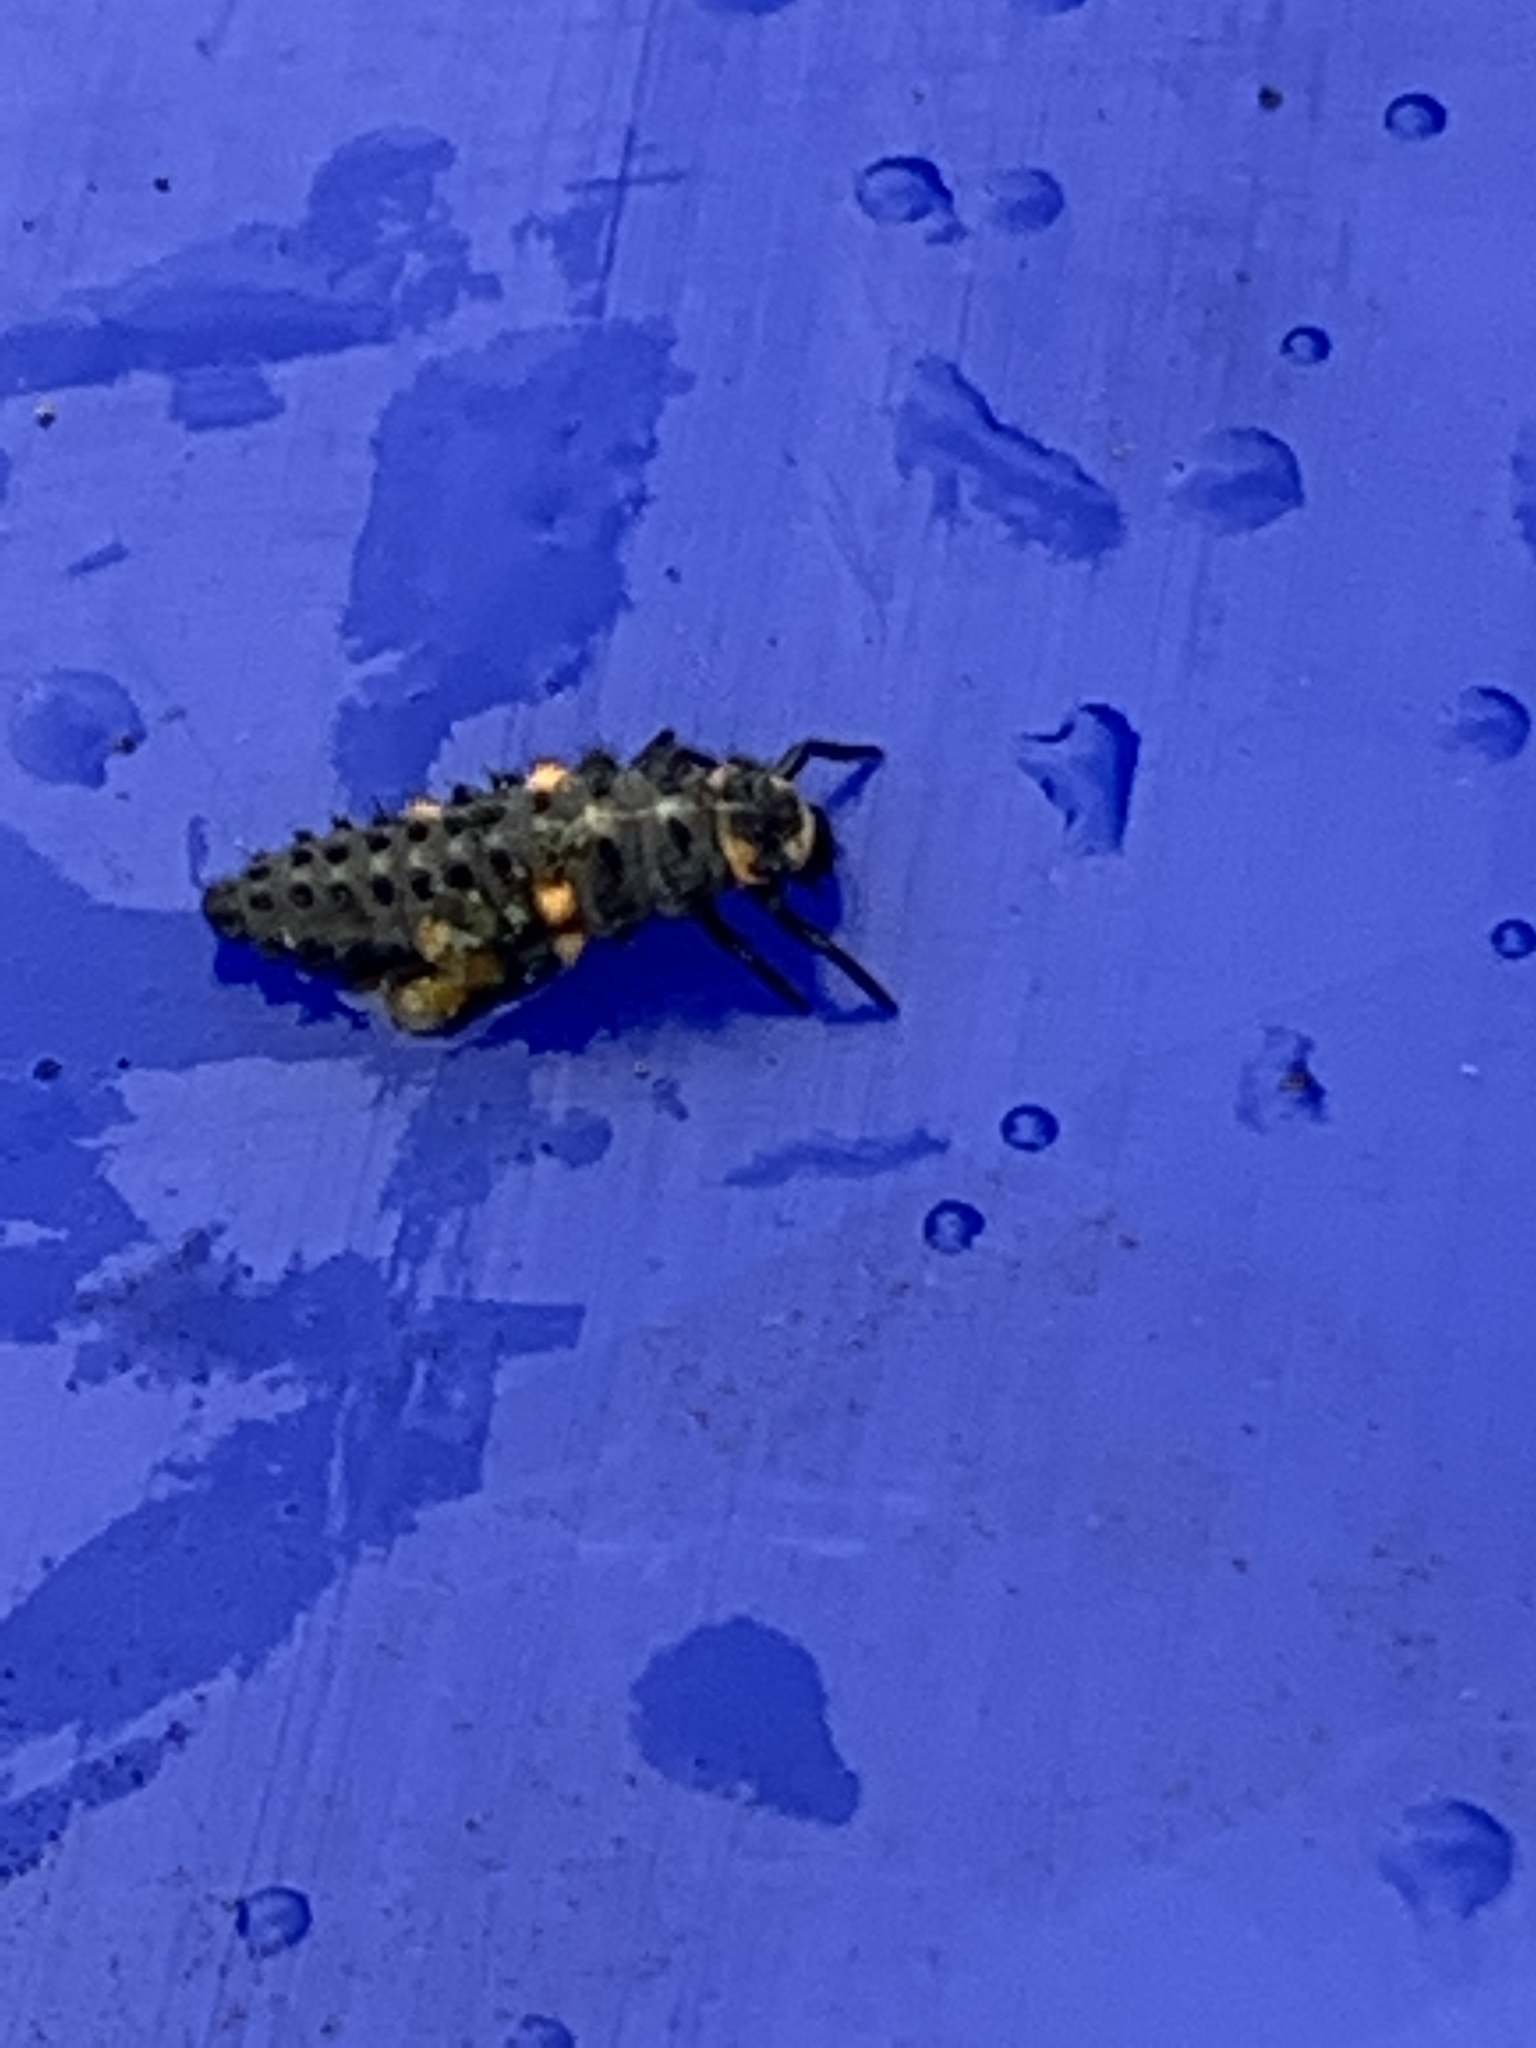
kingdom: Animalia
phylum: Arthropoda
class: Insecta
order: Coleoptera
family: Coccinellidae
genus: Coccinella
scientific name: Coccinella septempunctata
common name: Sevenspotted lady beetle
